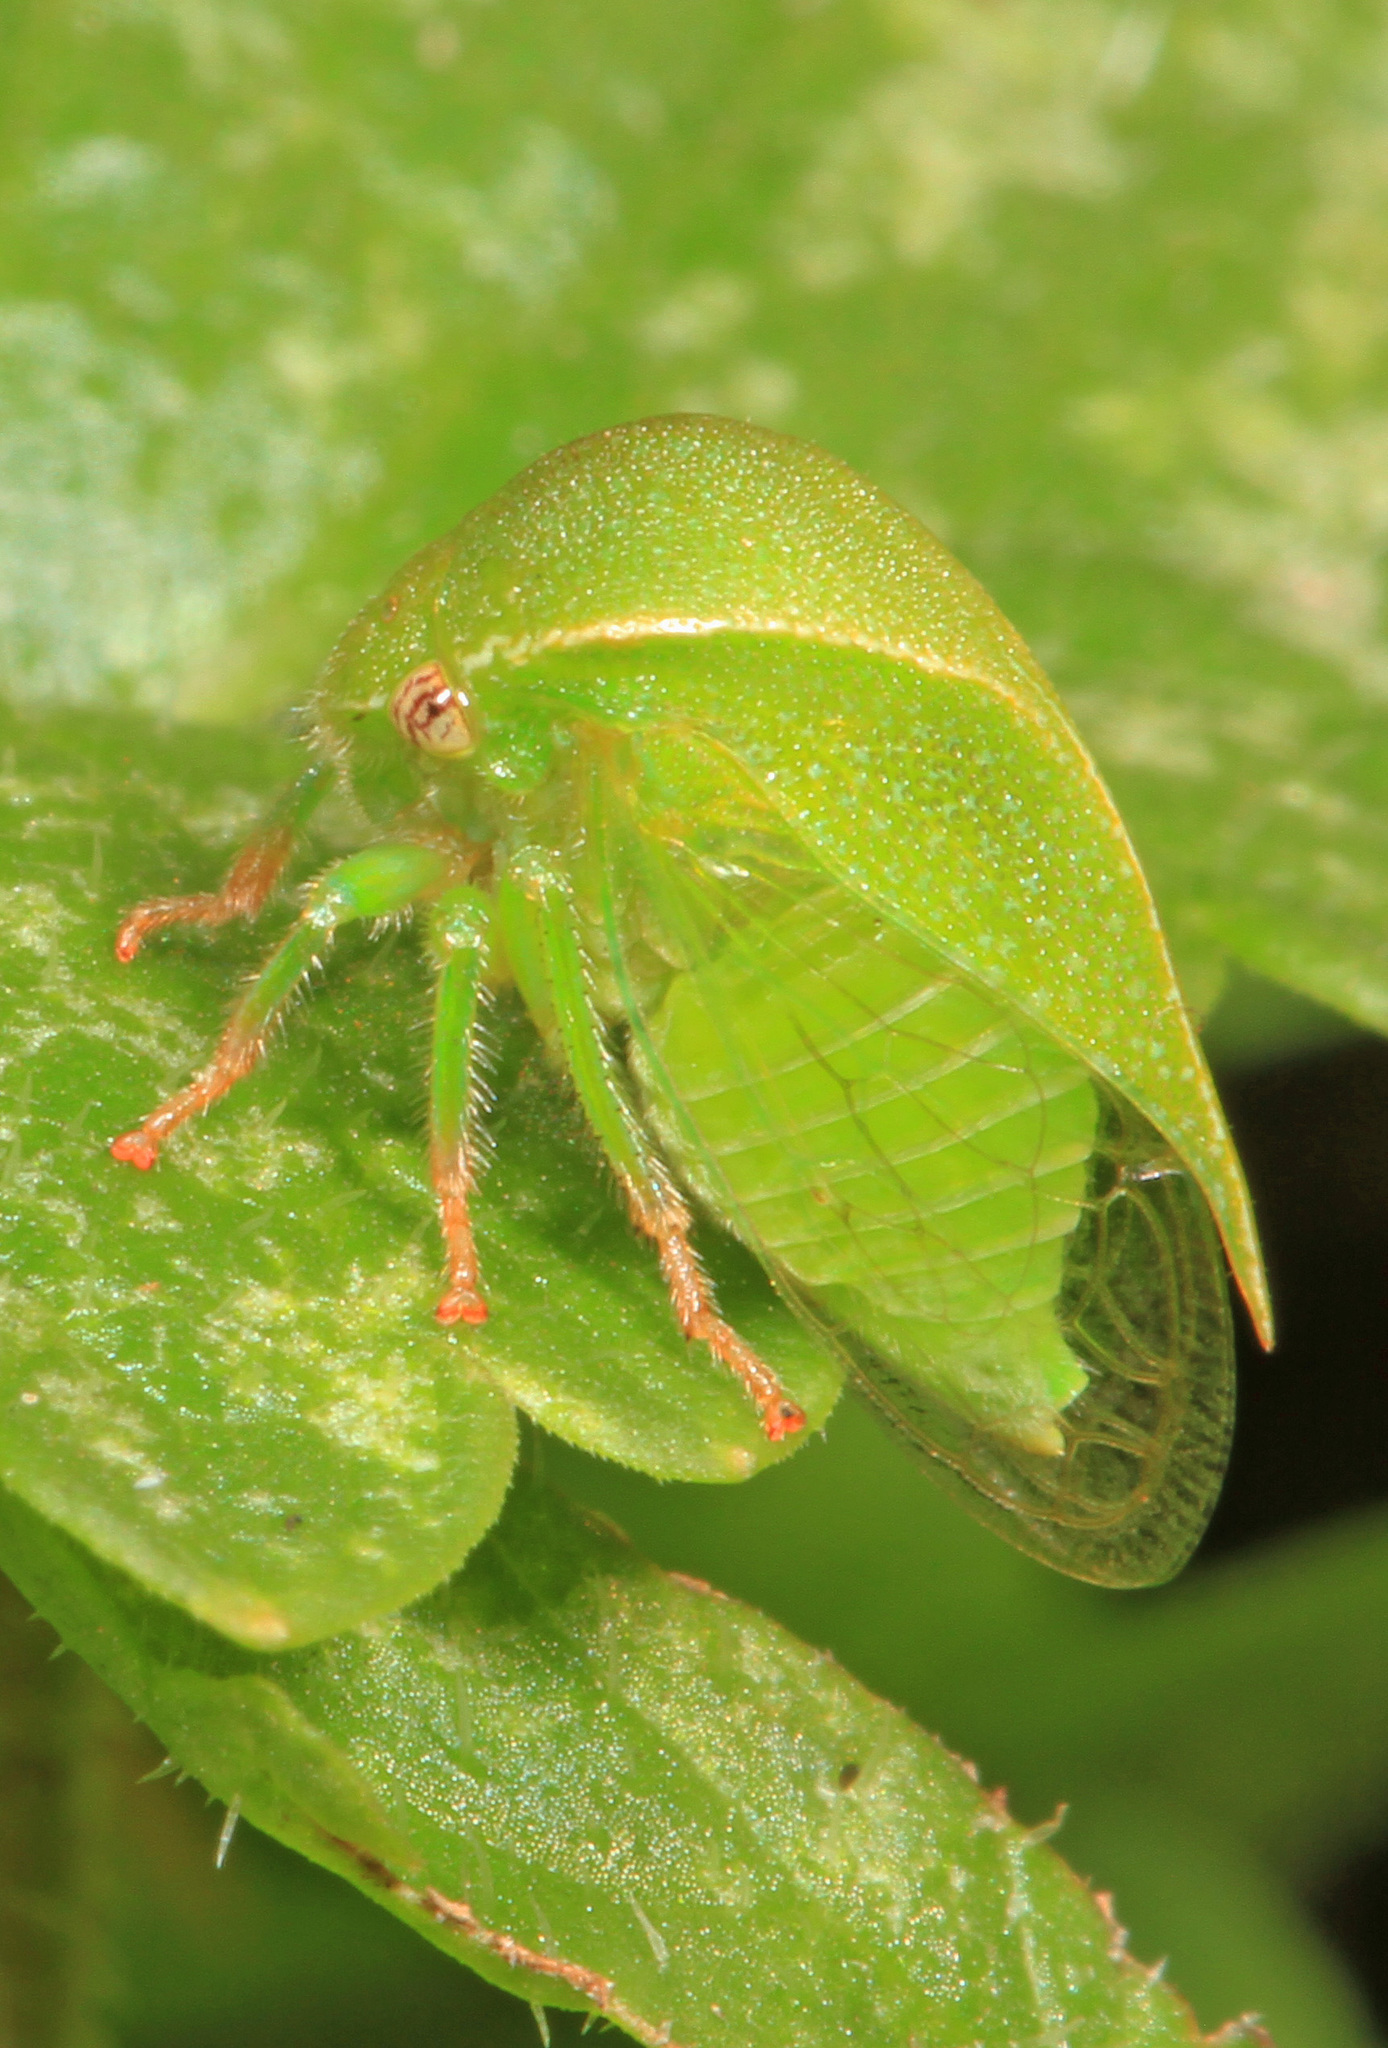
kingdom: Animalia
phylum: Arthropoda
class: Insecta
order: Hemiptera
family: Membracidae
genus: Spissistilus
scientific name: Spissistilus festina
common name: Membracid bug
